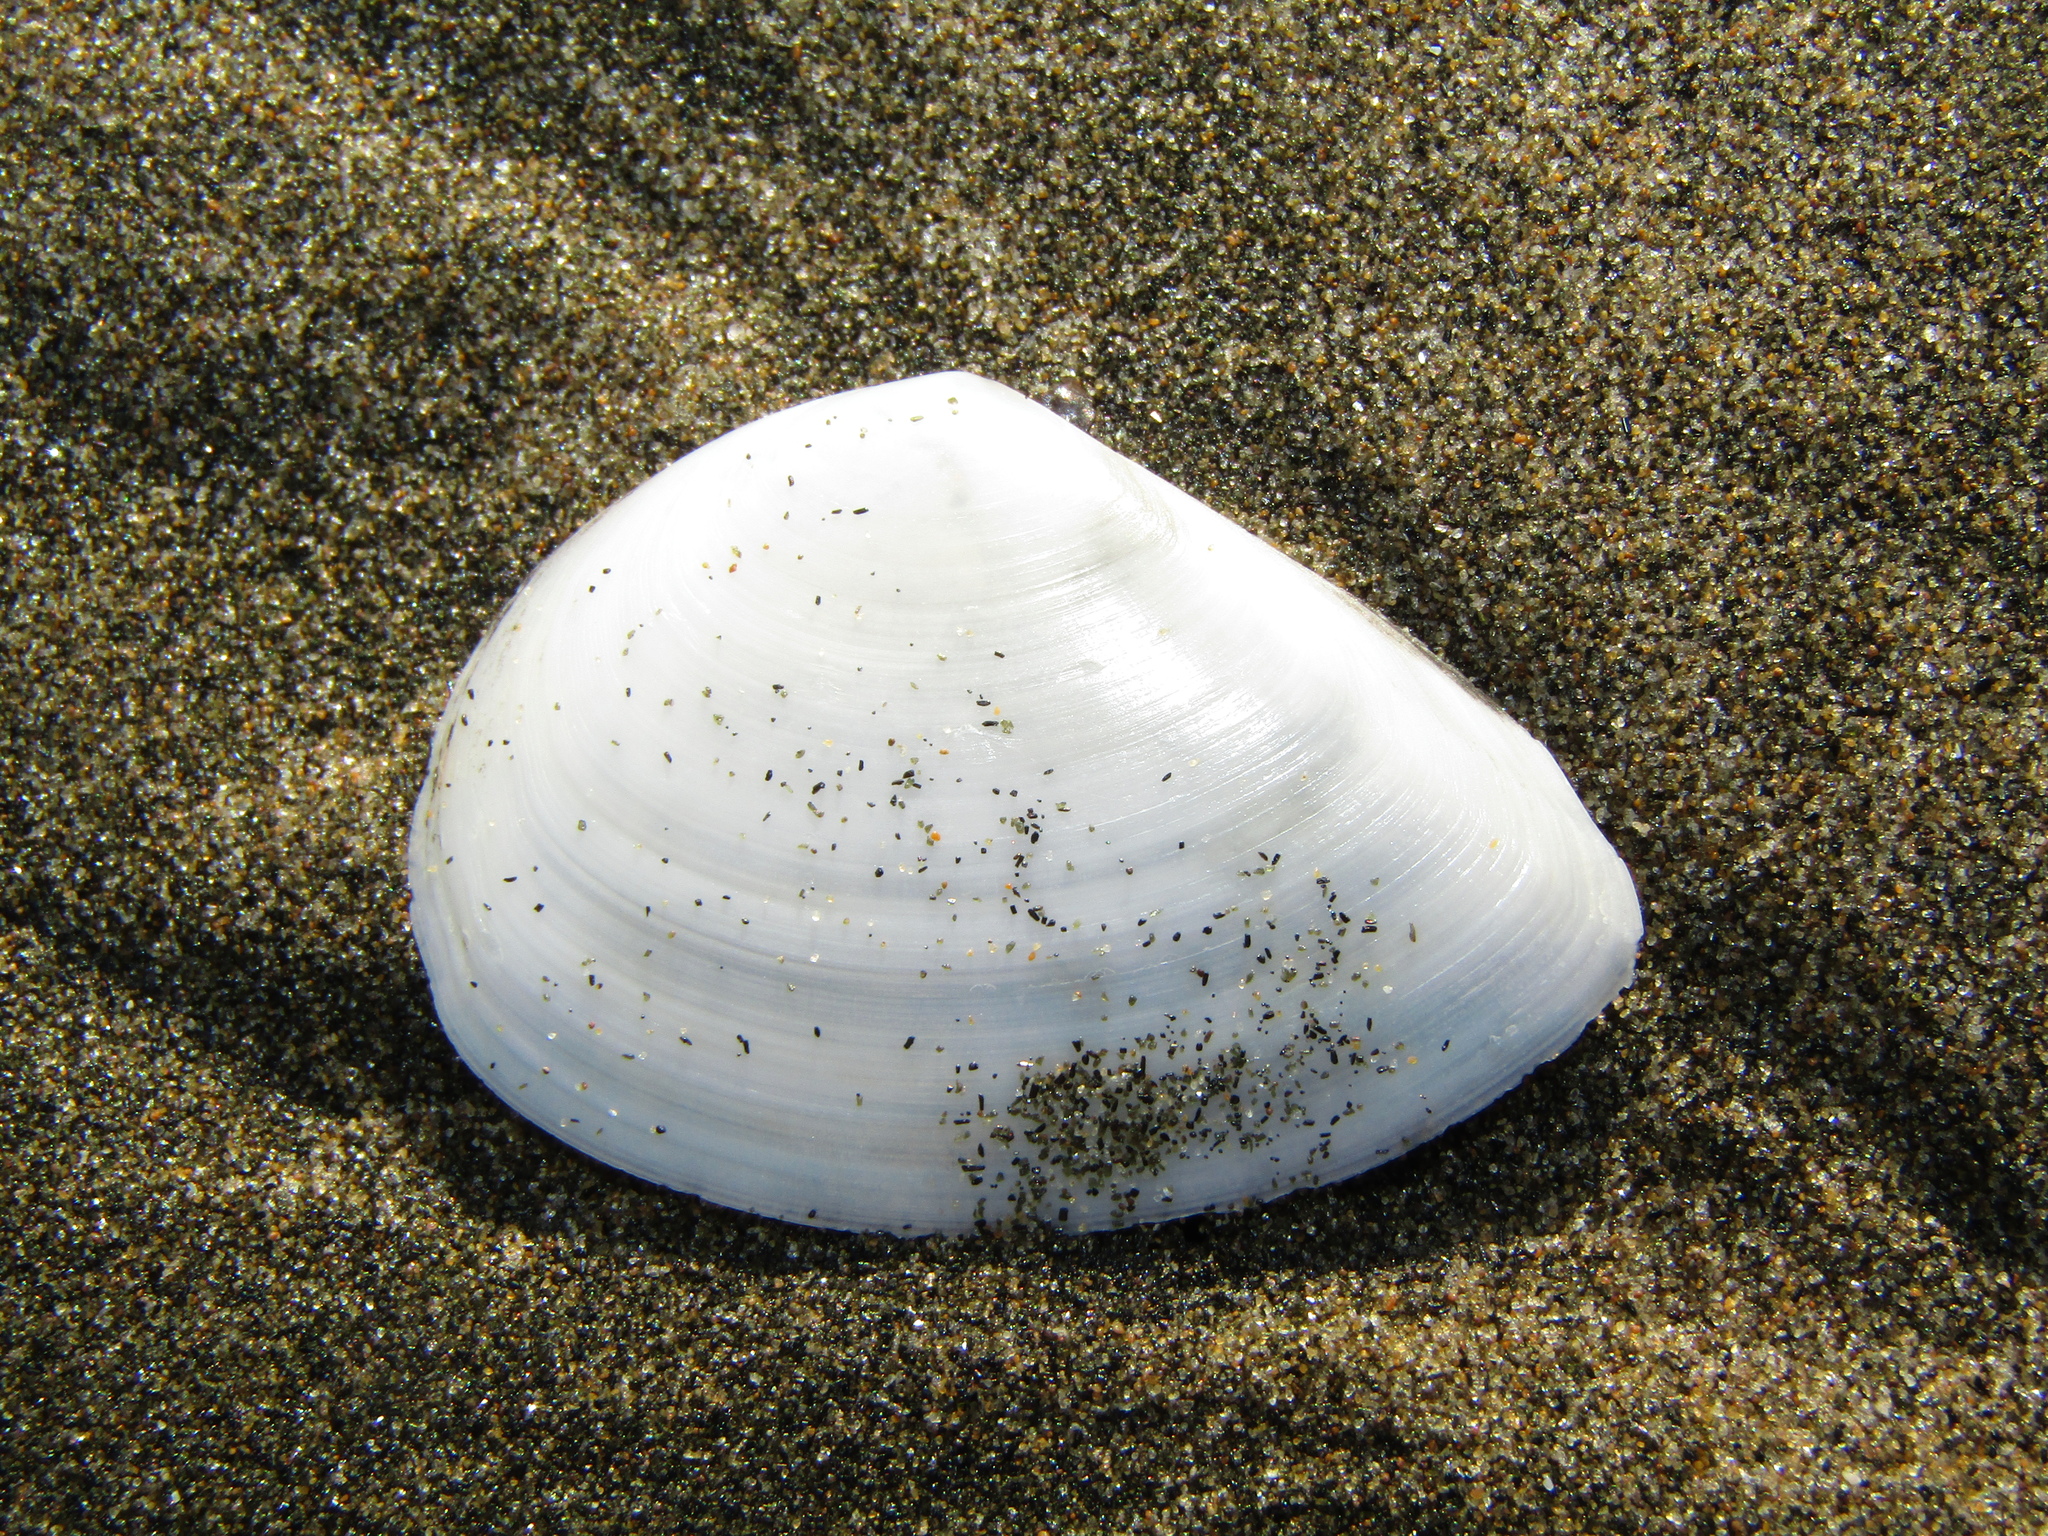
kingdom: Animalia
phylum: Mollusca
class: Bivalvia
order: Cardiida
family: Tellinidae
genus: Bartschicoma
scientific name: Bartschicoma gaimardi
